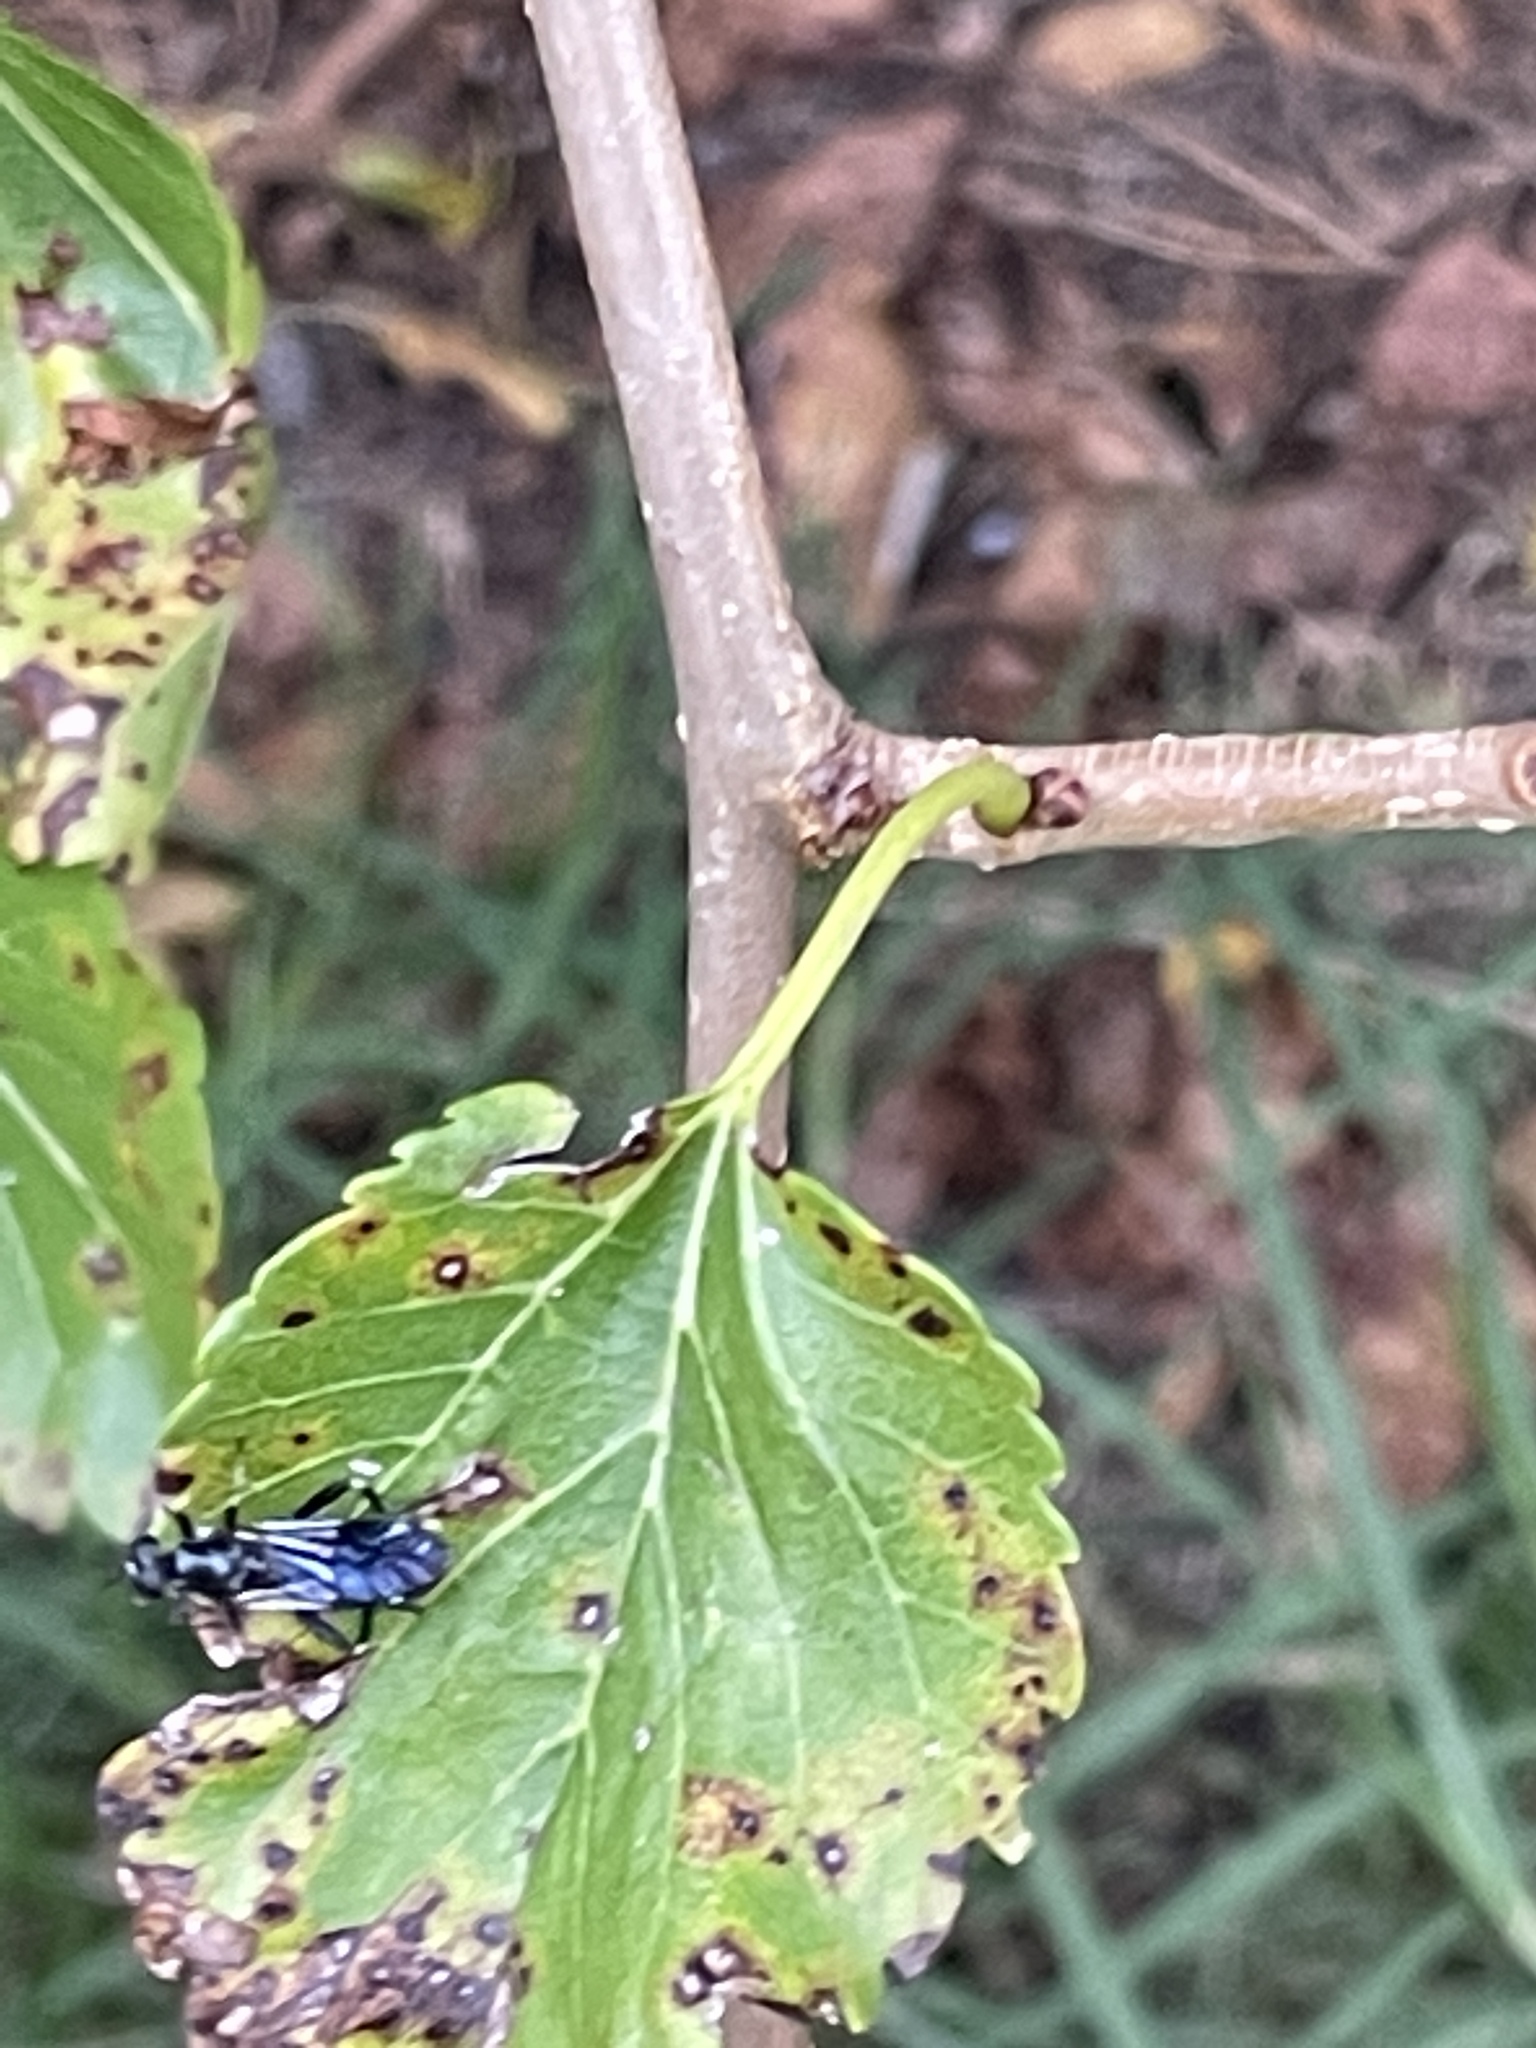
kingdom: Animalia
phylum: Arthropoda
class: Insecta
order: Diptera
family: Stratiomyidae
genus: Exaireta
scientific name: Exaireta spinigera
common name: Blue soldier fly
